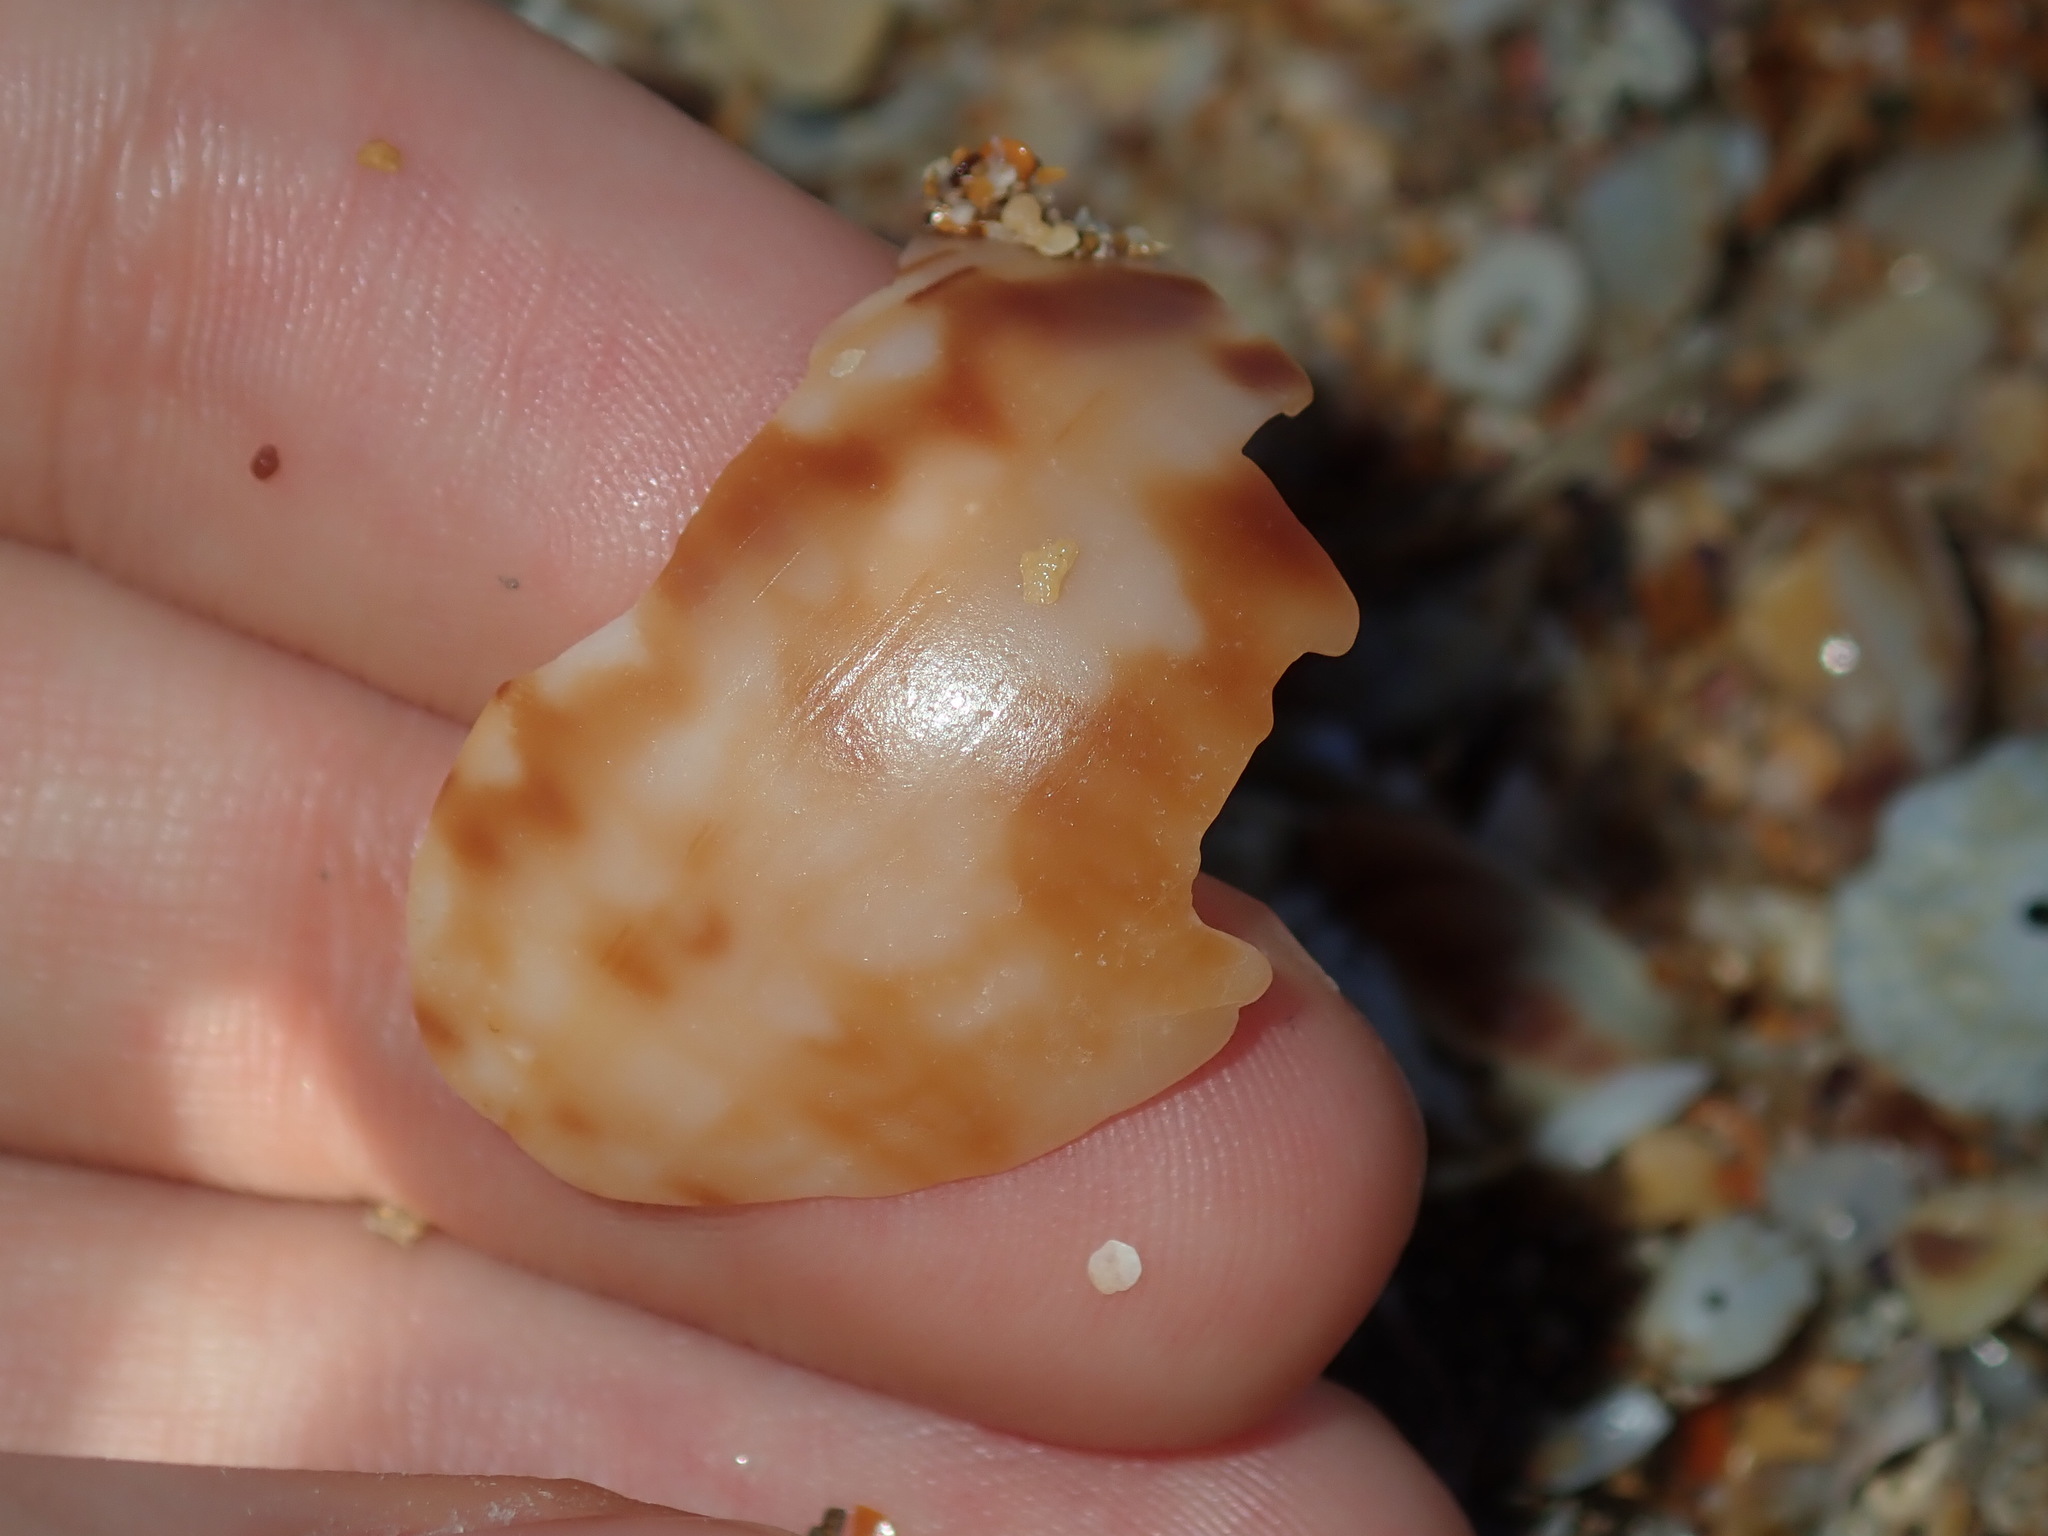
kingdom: Animalia
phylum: Mollusca
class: Gastropoda
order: Littorinimorpha
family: Cassidae
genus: Semicassis
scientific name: Semicassis labiata
